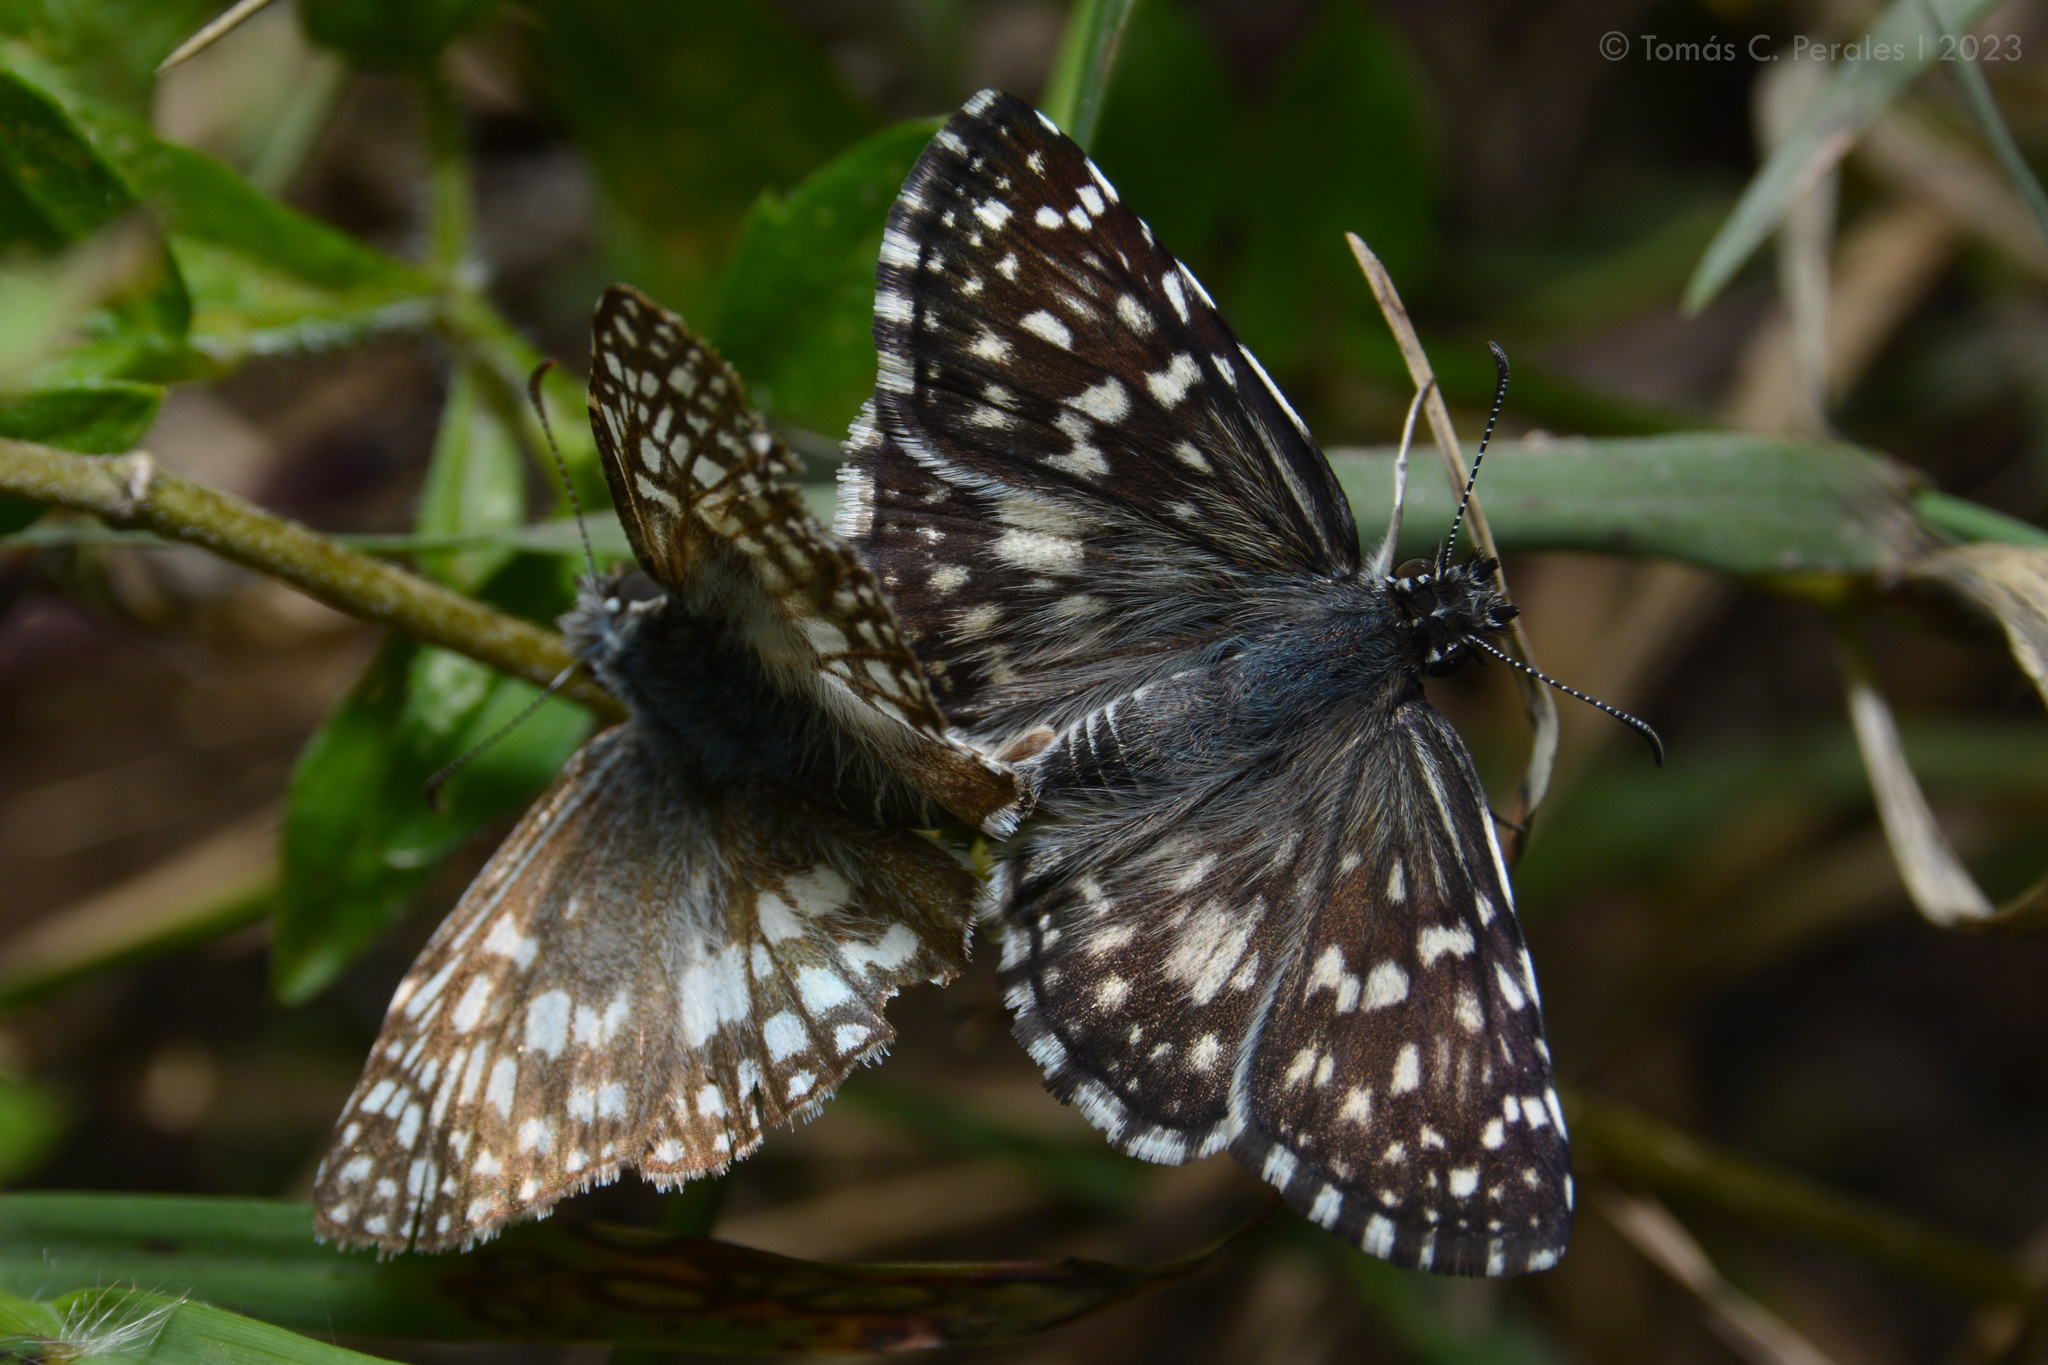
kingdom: Animalia
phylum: Arthropoda
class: Insecta
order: Lepidoptera
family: Hesperiidae
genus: Pyrgus
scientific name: Pyrgus oileus
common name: Tropical checkered-skipper
